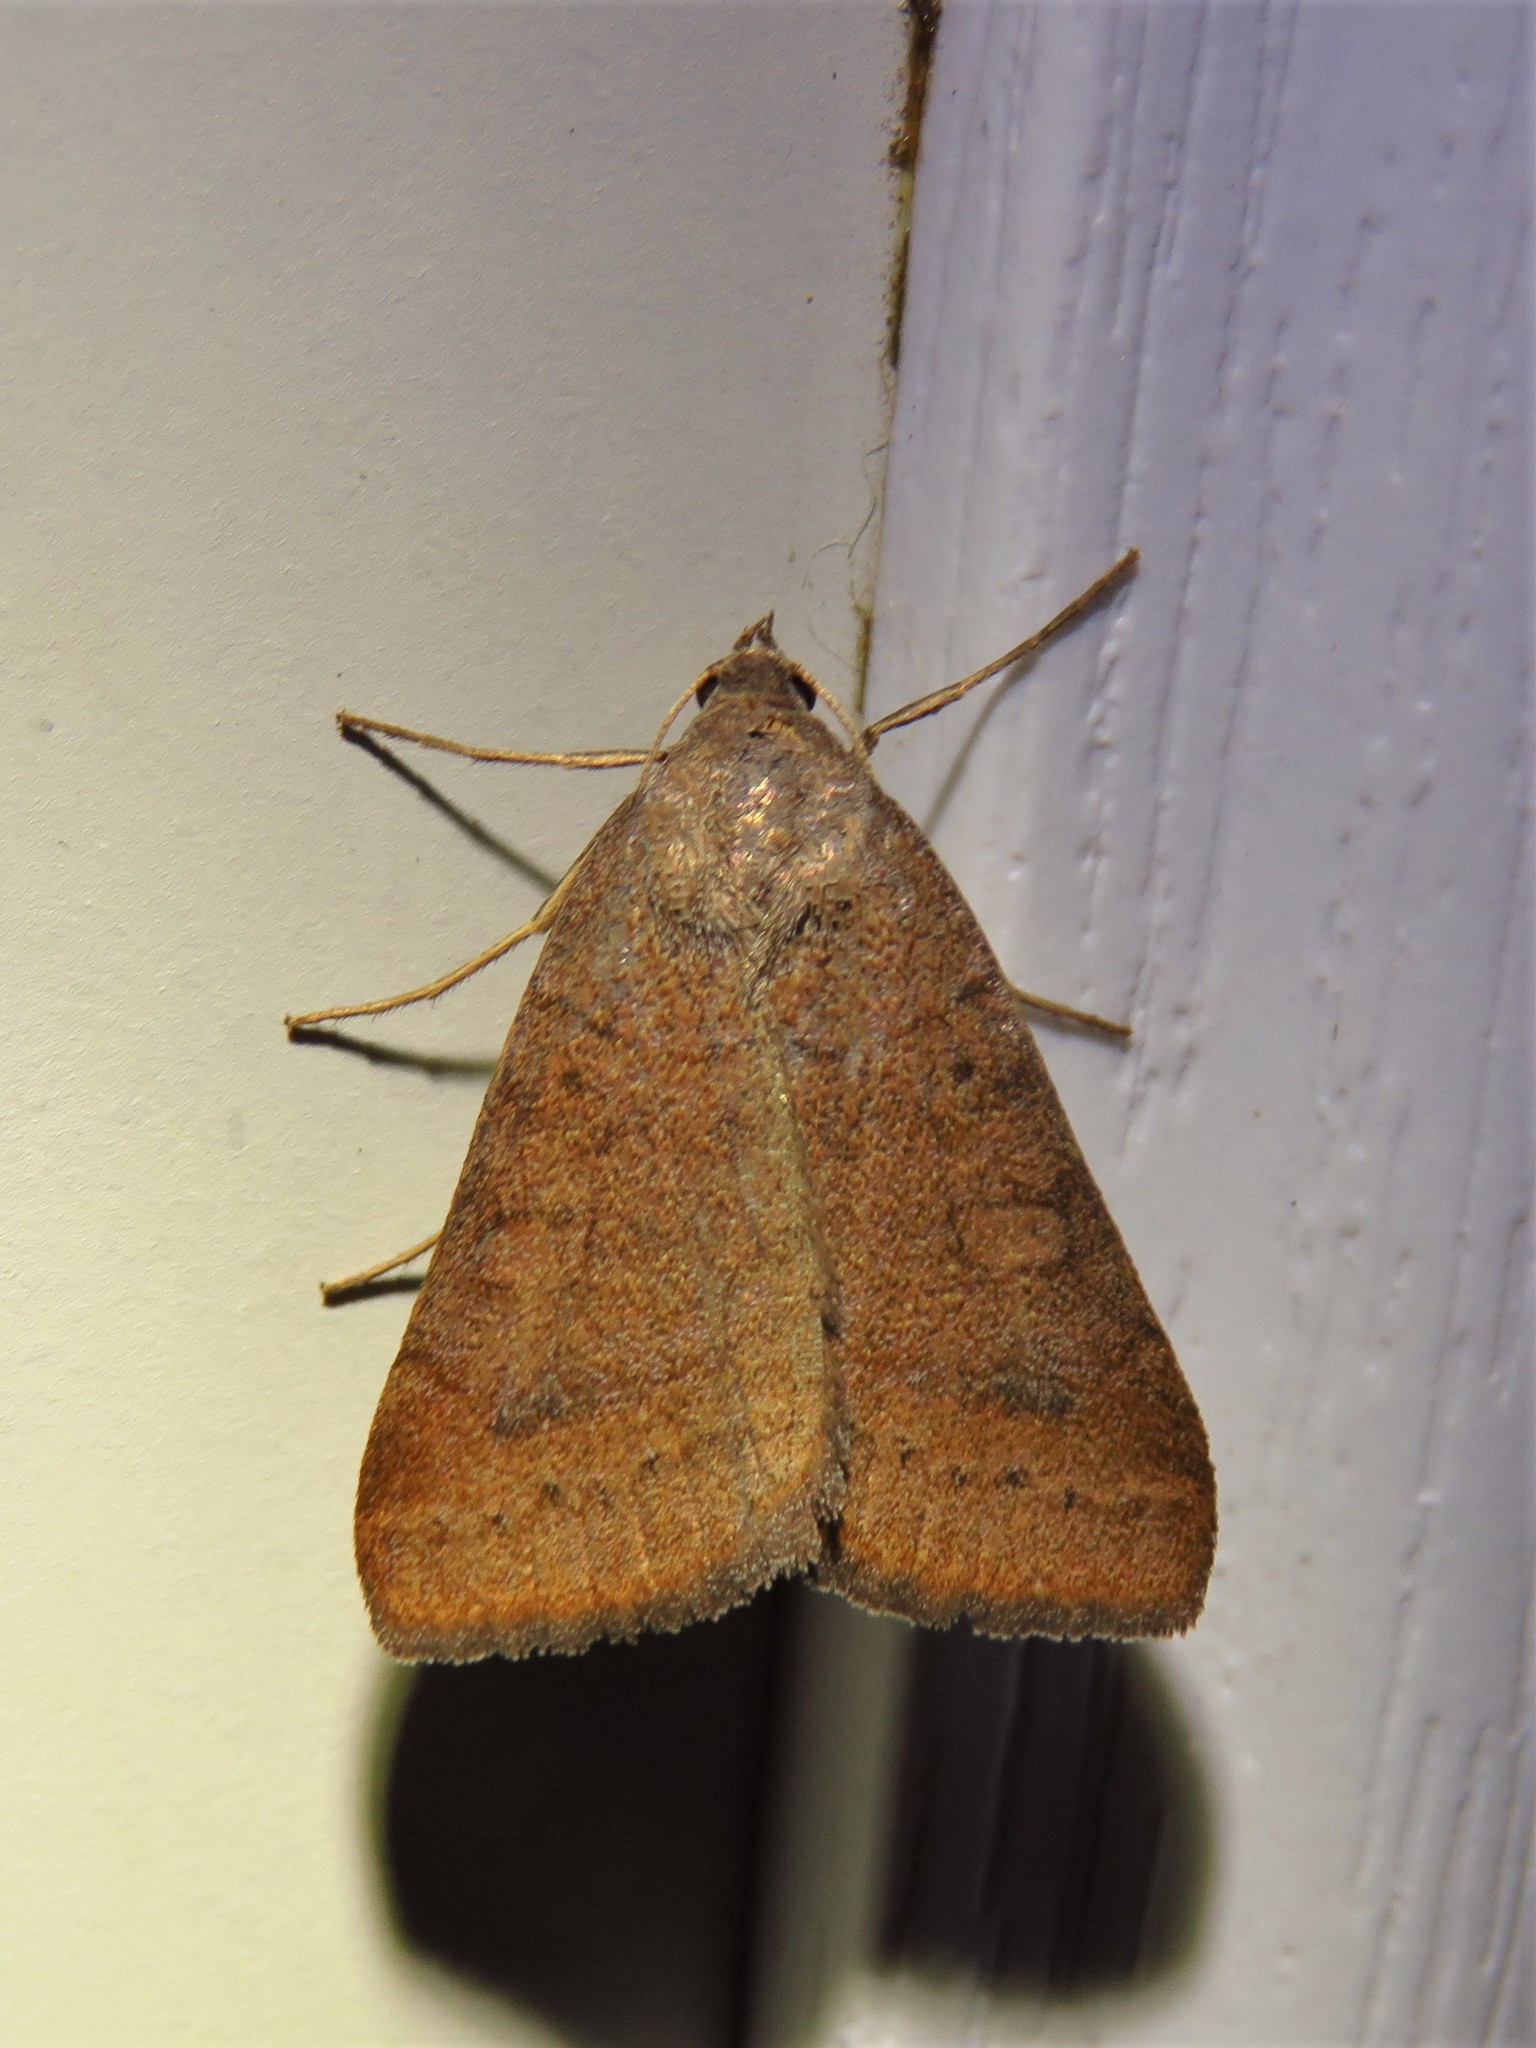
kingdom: Animalia
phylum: Arthropoda
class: Insecta
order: Lepidoptera
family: Erebidae
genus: Caenurgia
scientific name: Caenurgia chloropha
